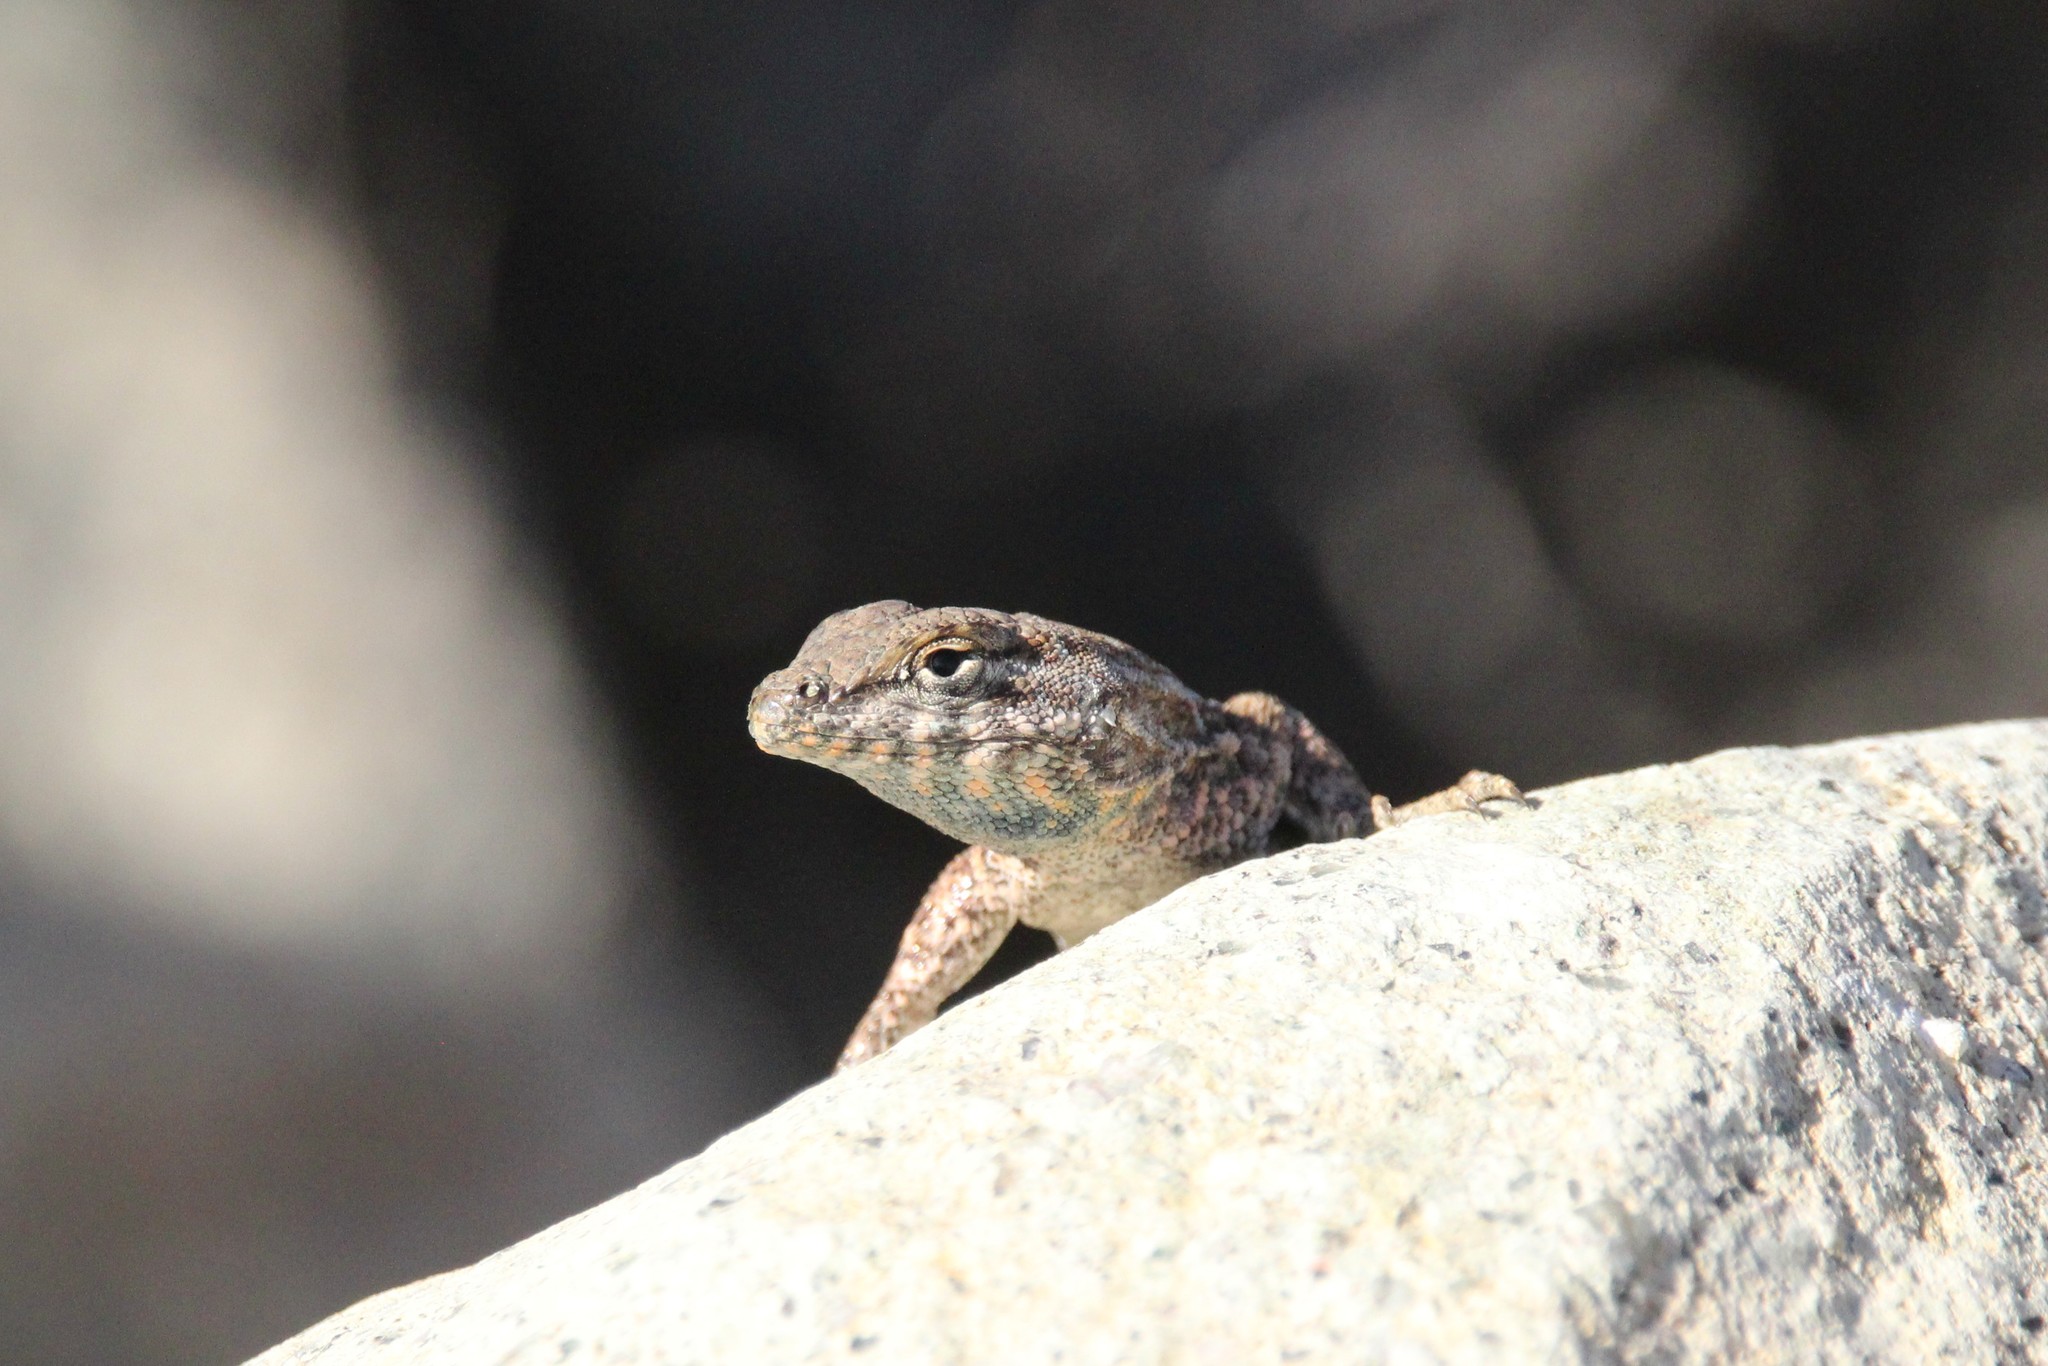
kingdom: Animalia
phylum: Chordata
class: Squamata
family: Phrynosomatidae
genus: Uta
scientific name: Uta stansburiana
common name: Side-blotched lizard
